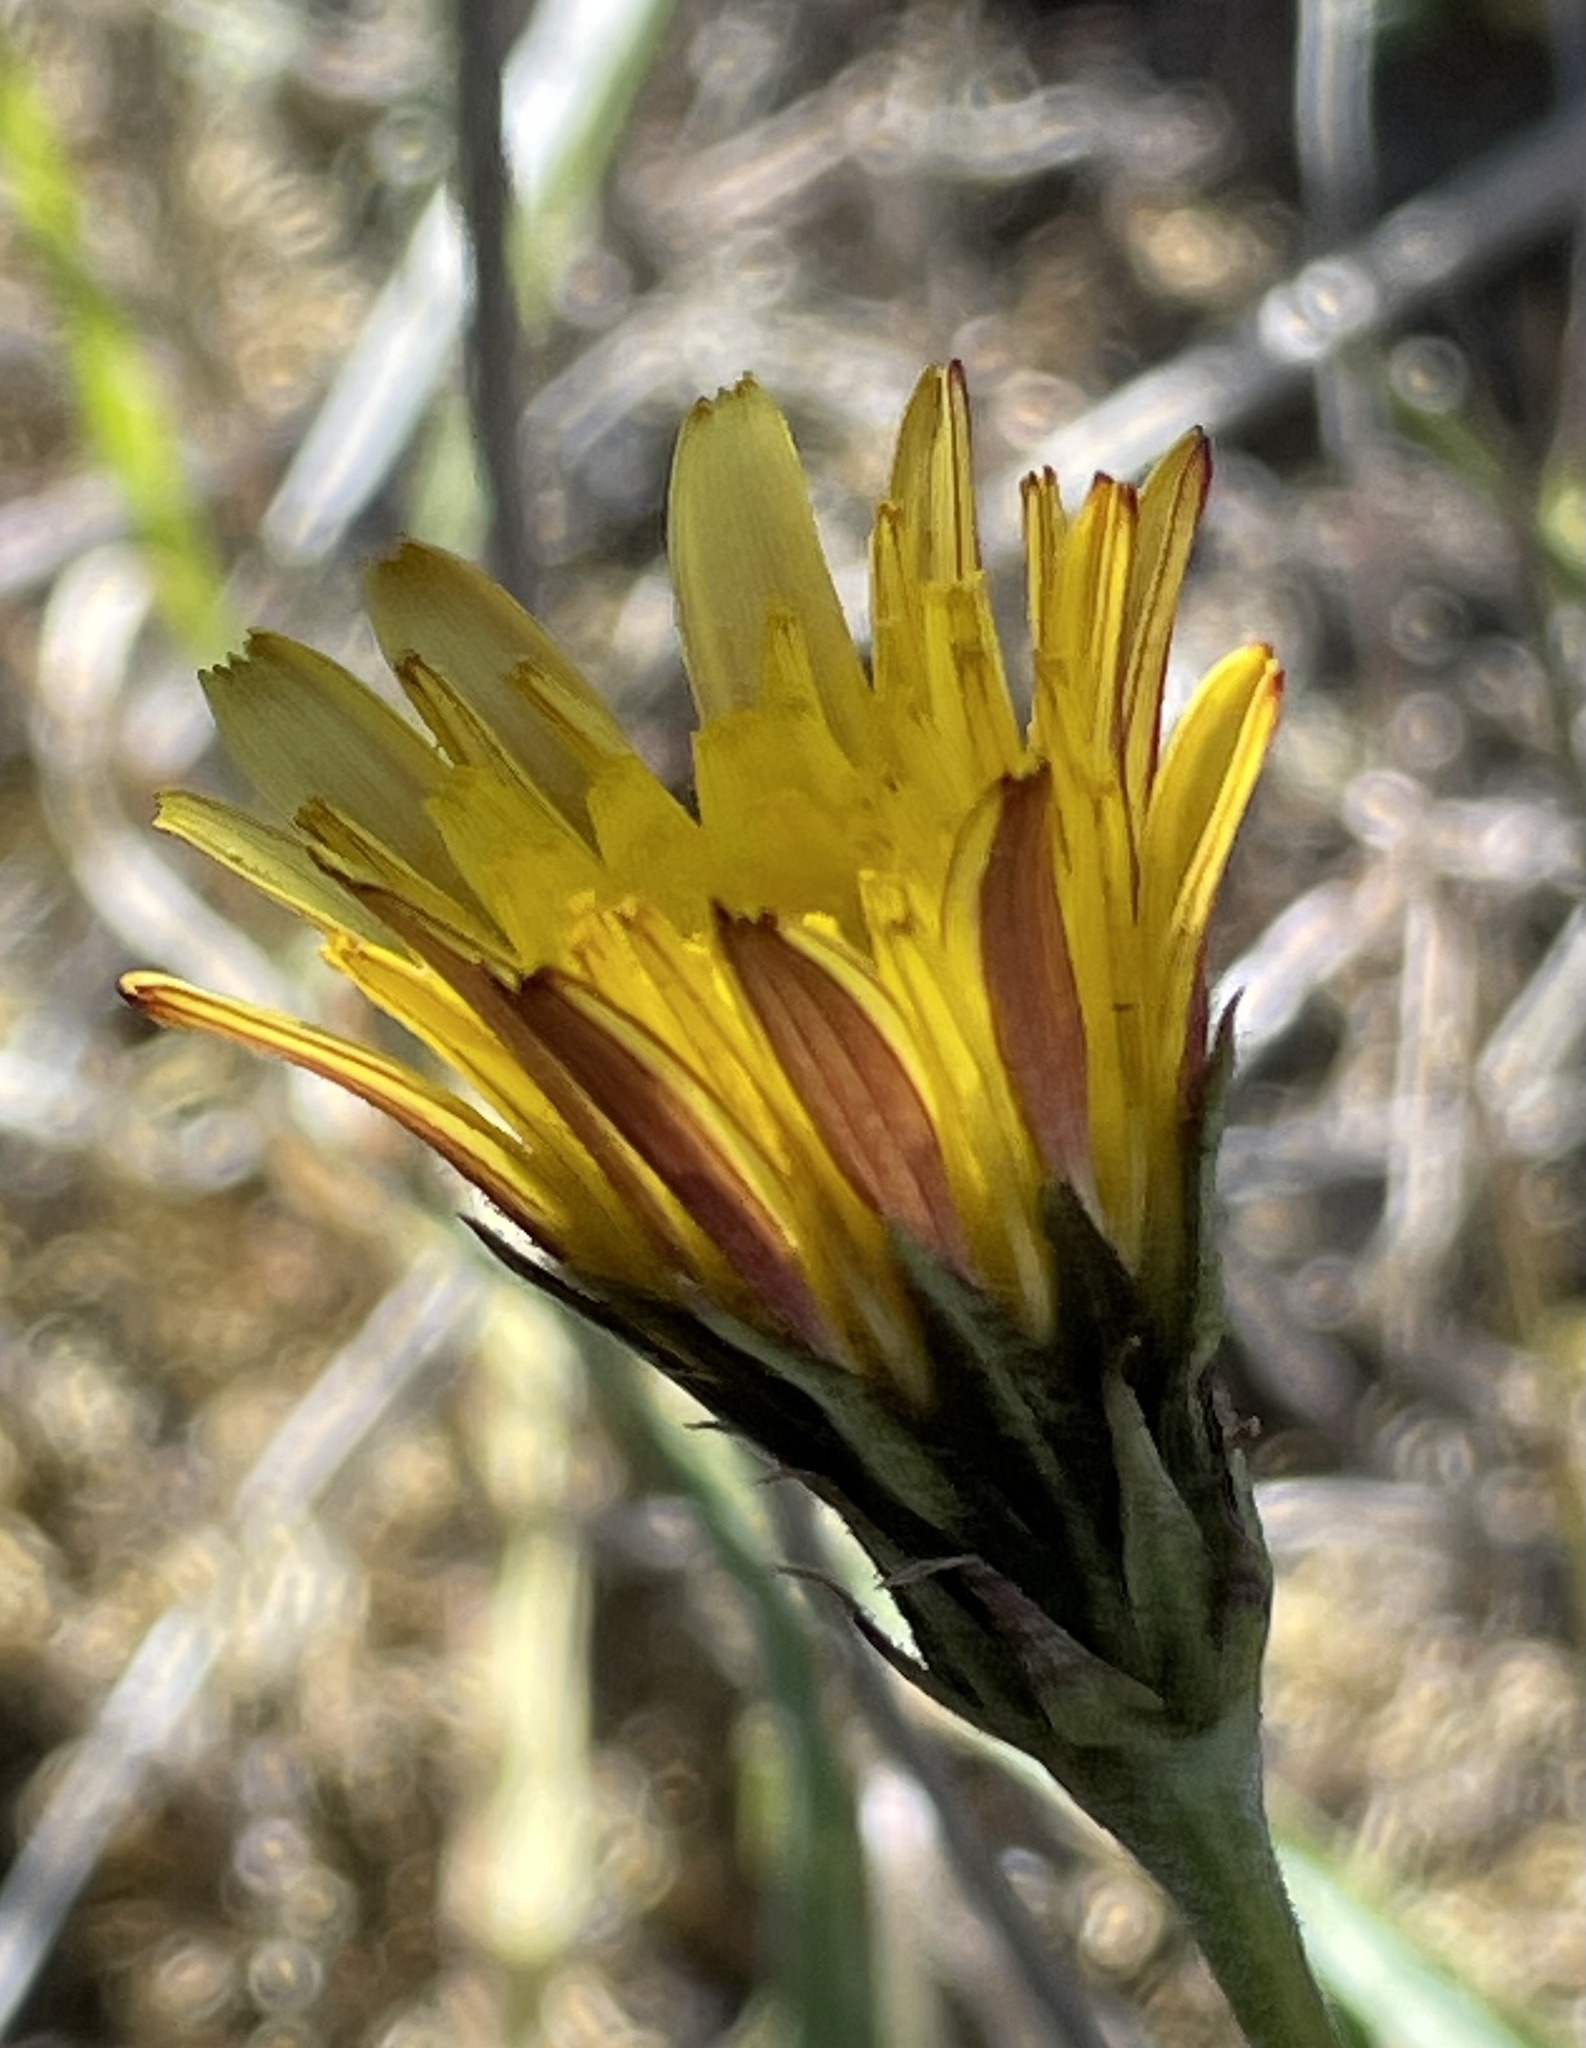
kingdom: Plantae
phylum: Tracheophyta
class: Magnoliopsida
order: Asterales
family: Asteraceae
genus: Microseris
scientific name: Microseris paludosa
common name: Marsh silverpuffs
